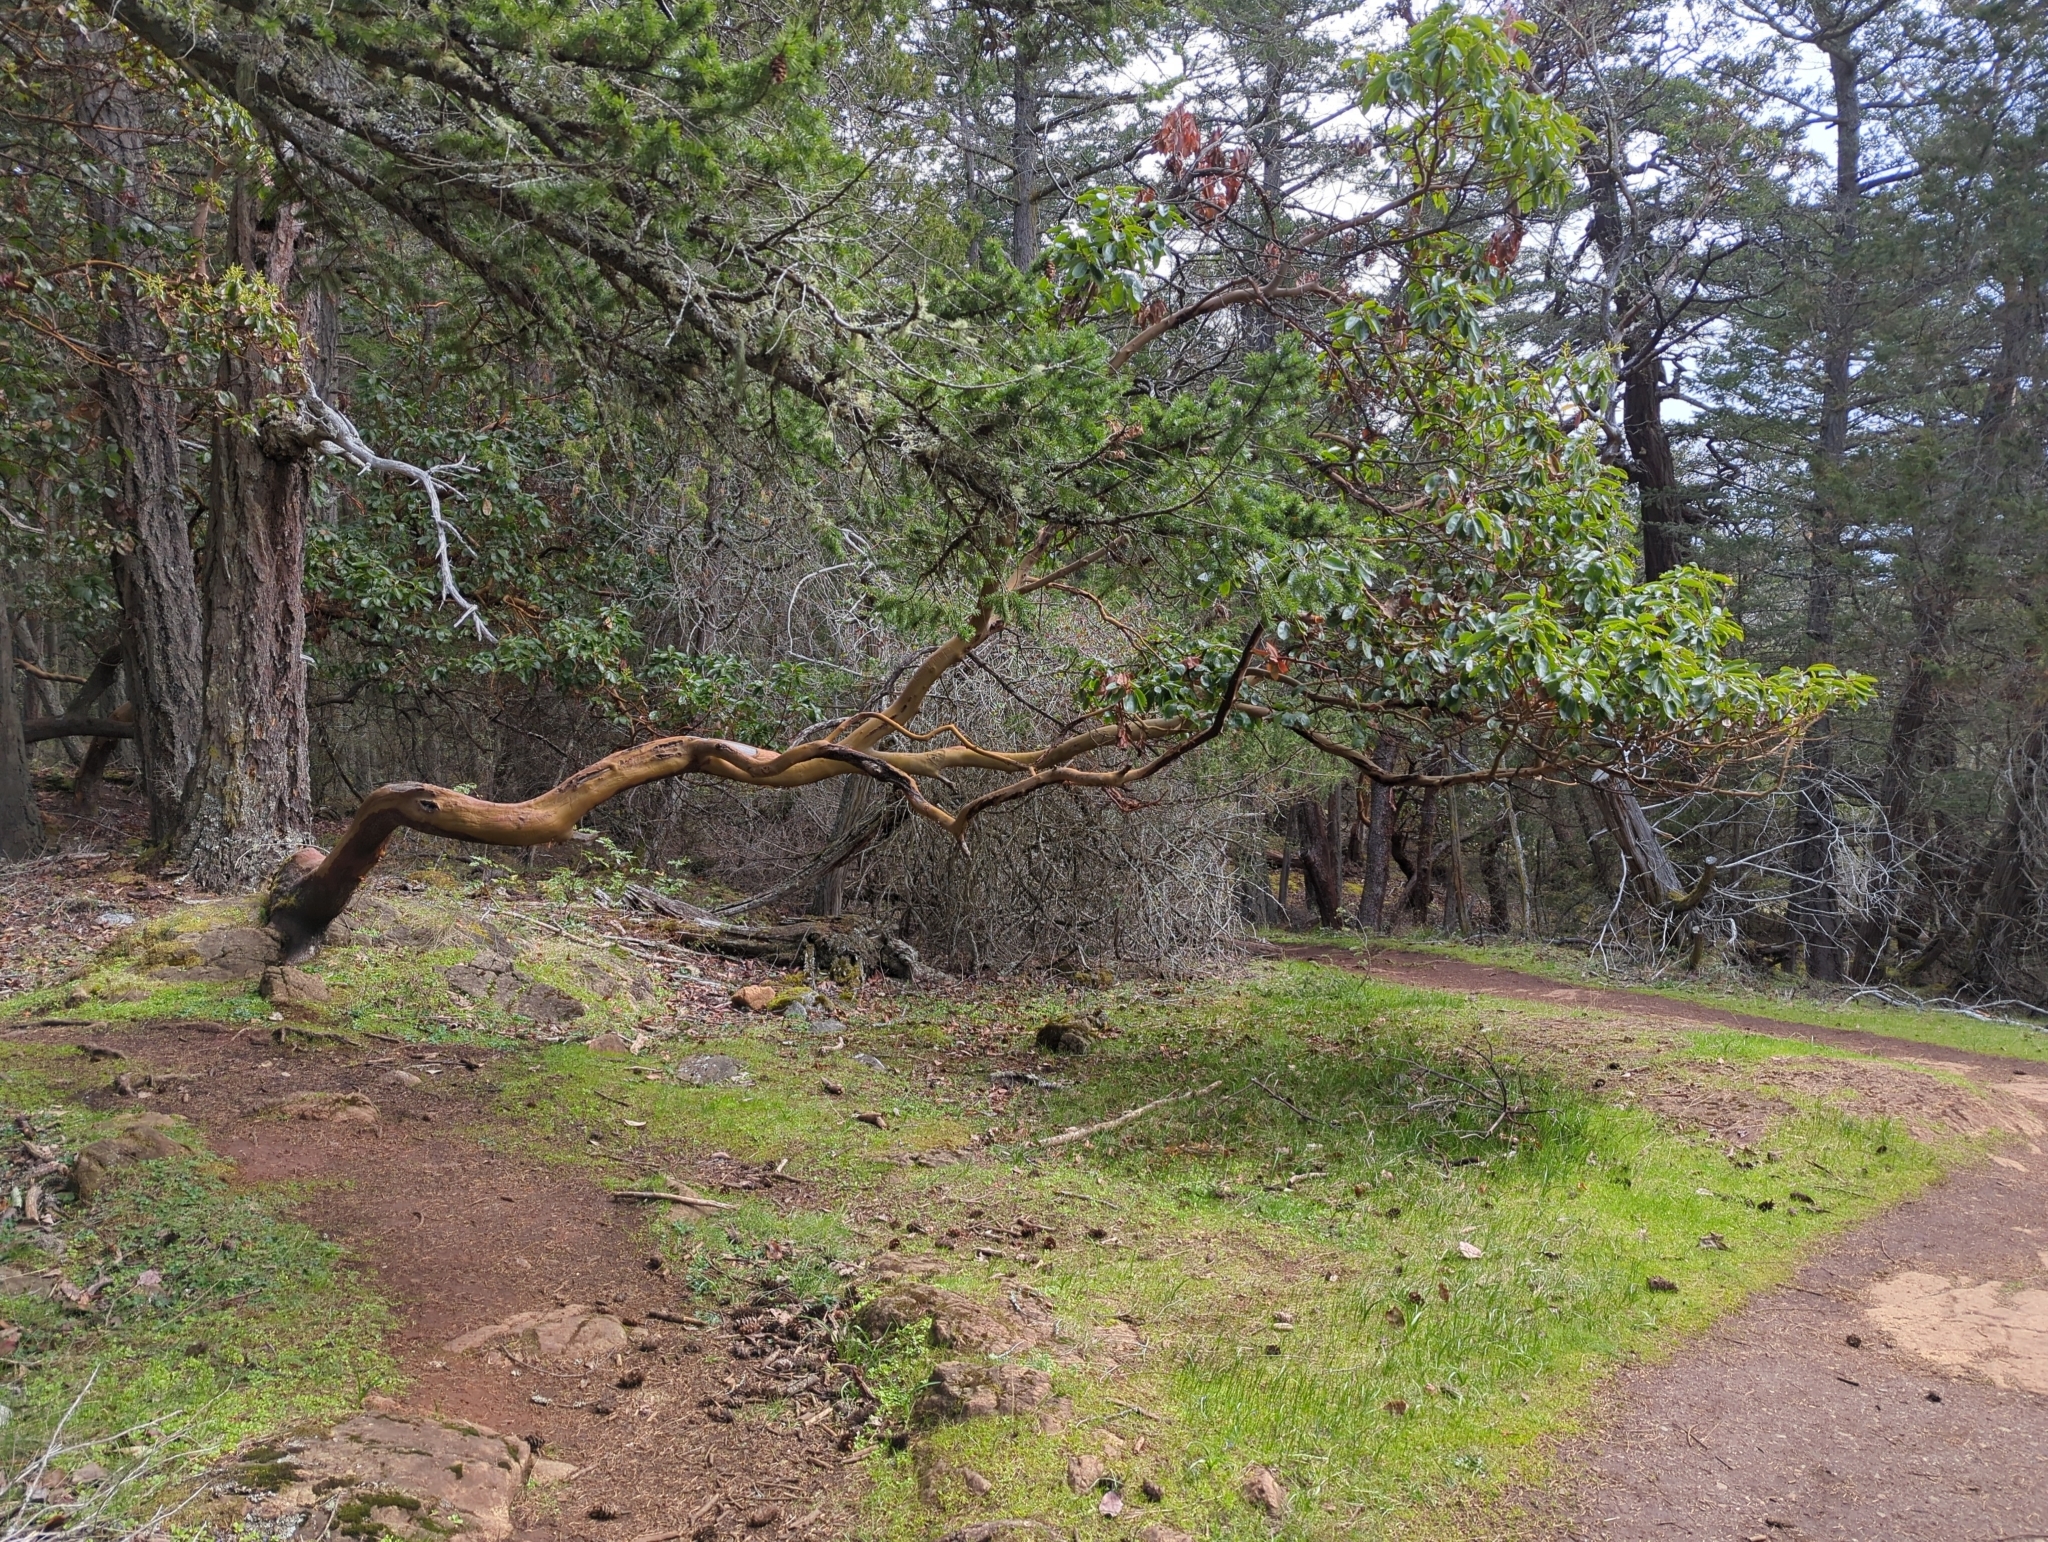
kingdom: Plantae
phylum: Tracheophyta
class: Magnoliopsida
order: Ericales
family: Ericaceae
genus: Arbutus
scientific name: Arbutus menziesii
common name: Pacific madrone
